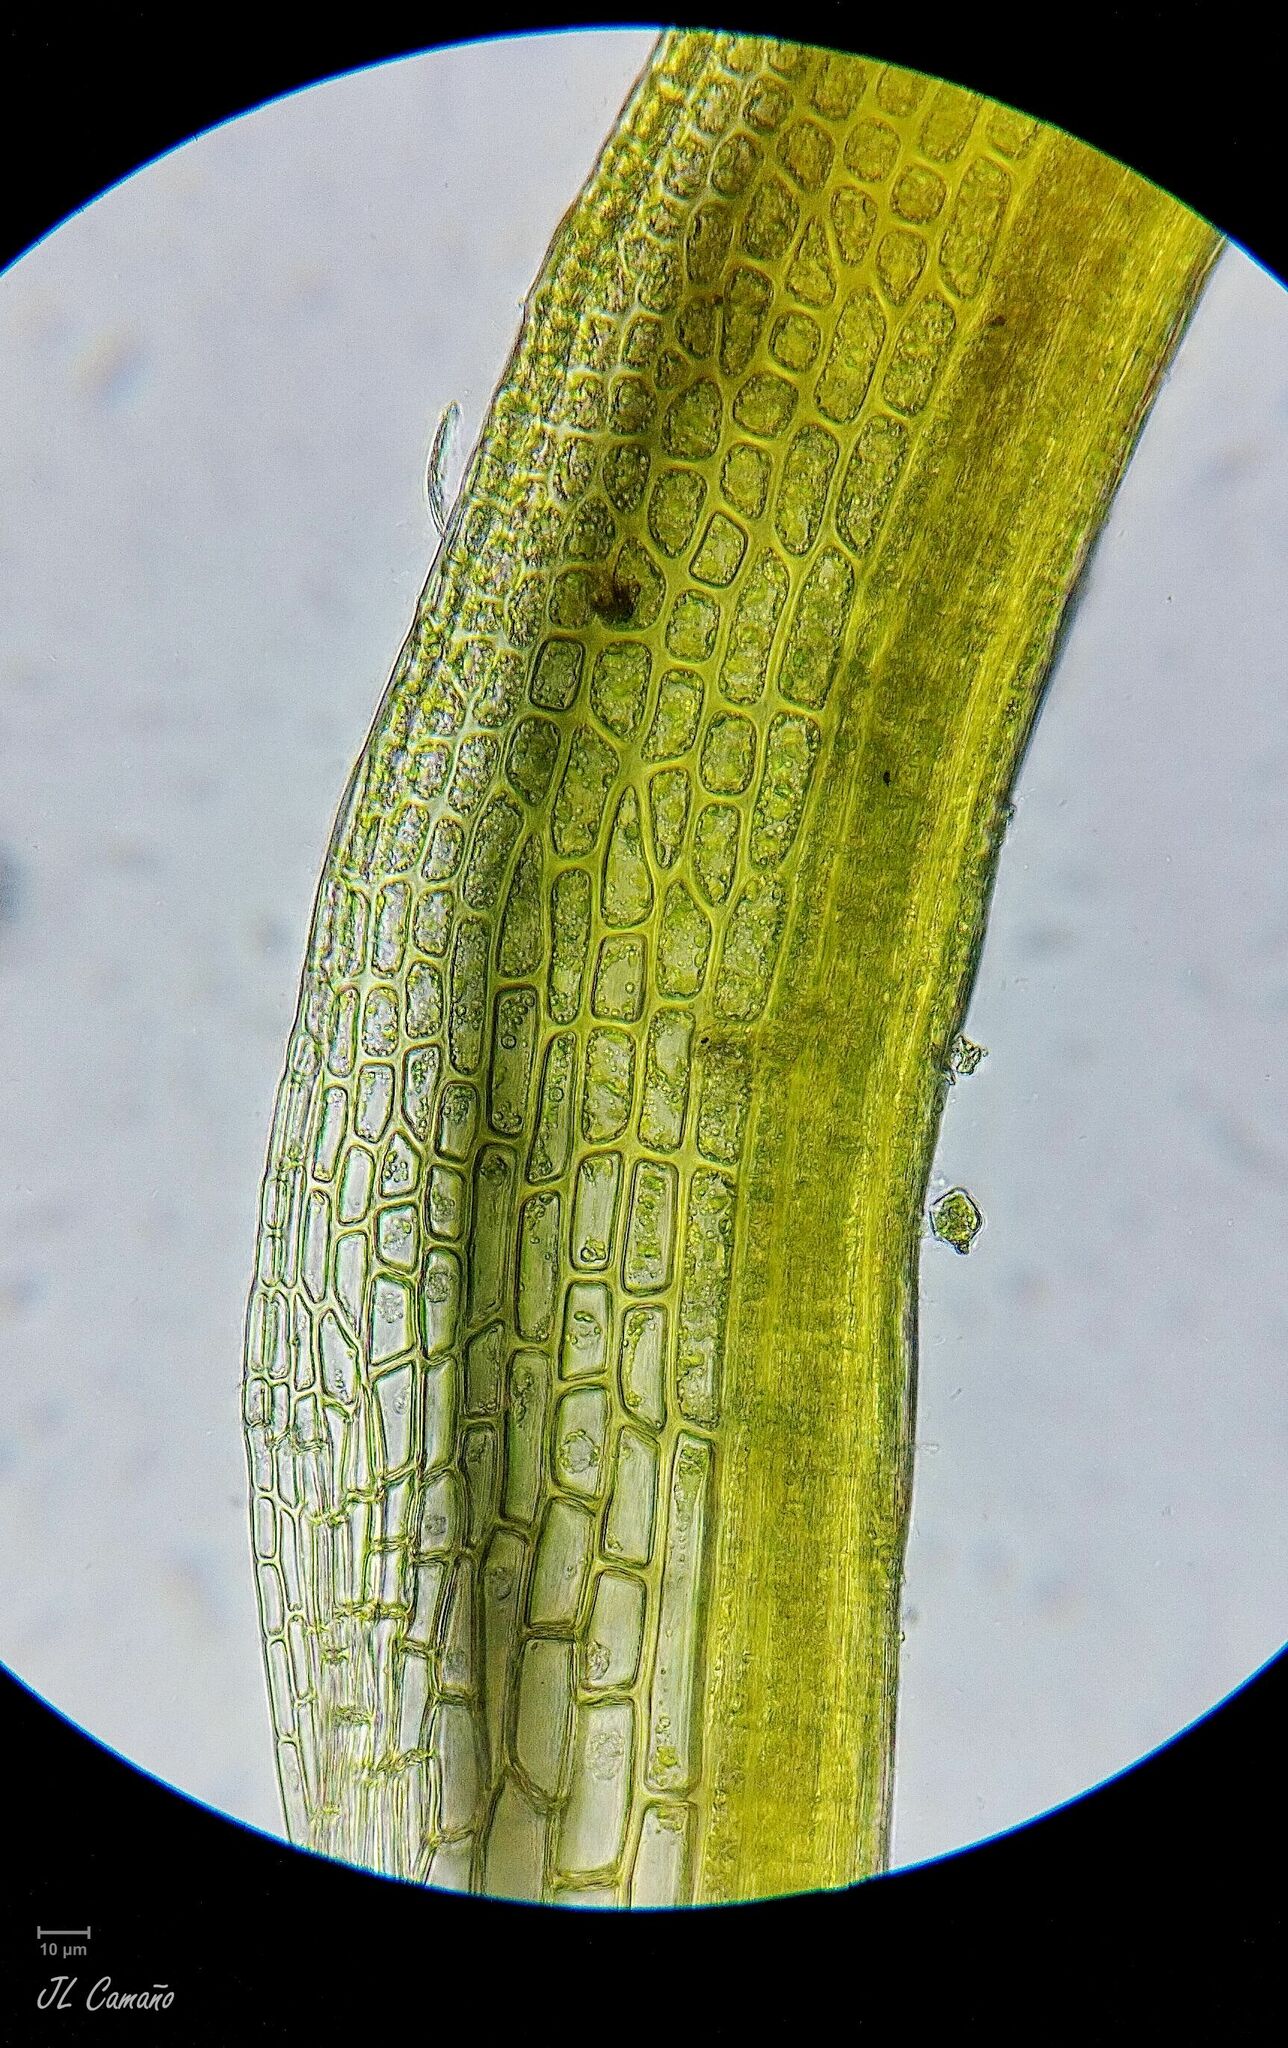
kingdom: Plantae
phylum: Bryophyta
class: Bryopsida
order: Dicranales
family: Amphidiaceae
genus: Amphidium
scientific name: Amphidium mougeotii
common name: Mougeot's yoke moss
